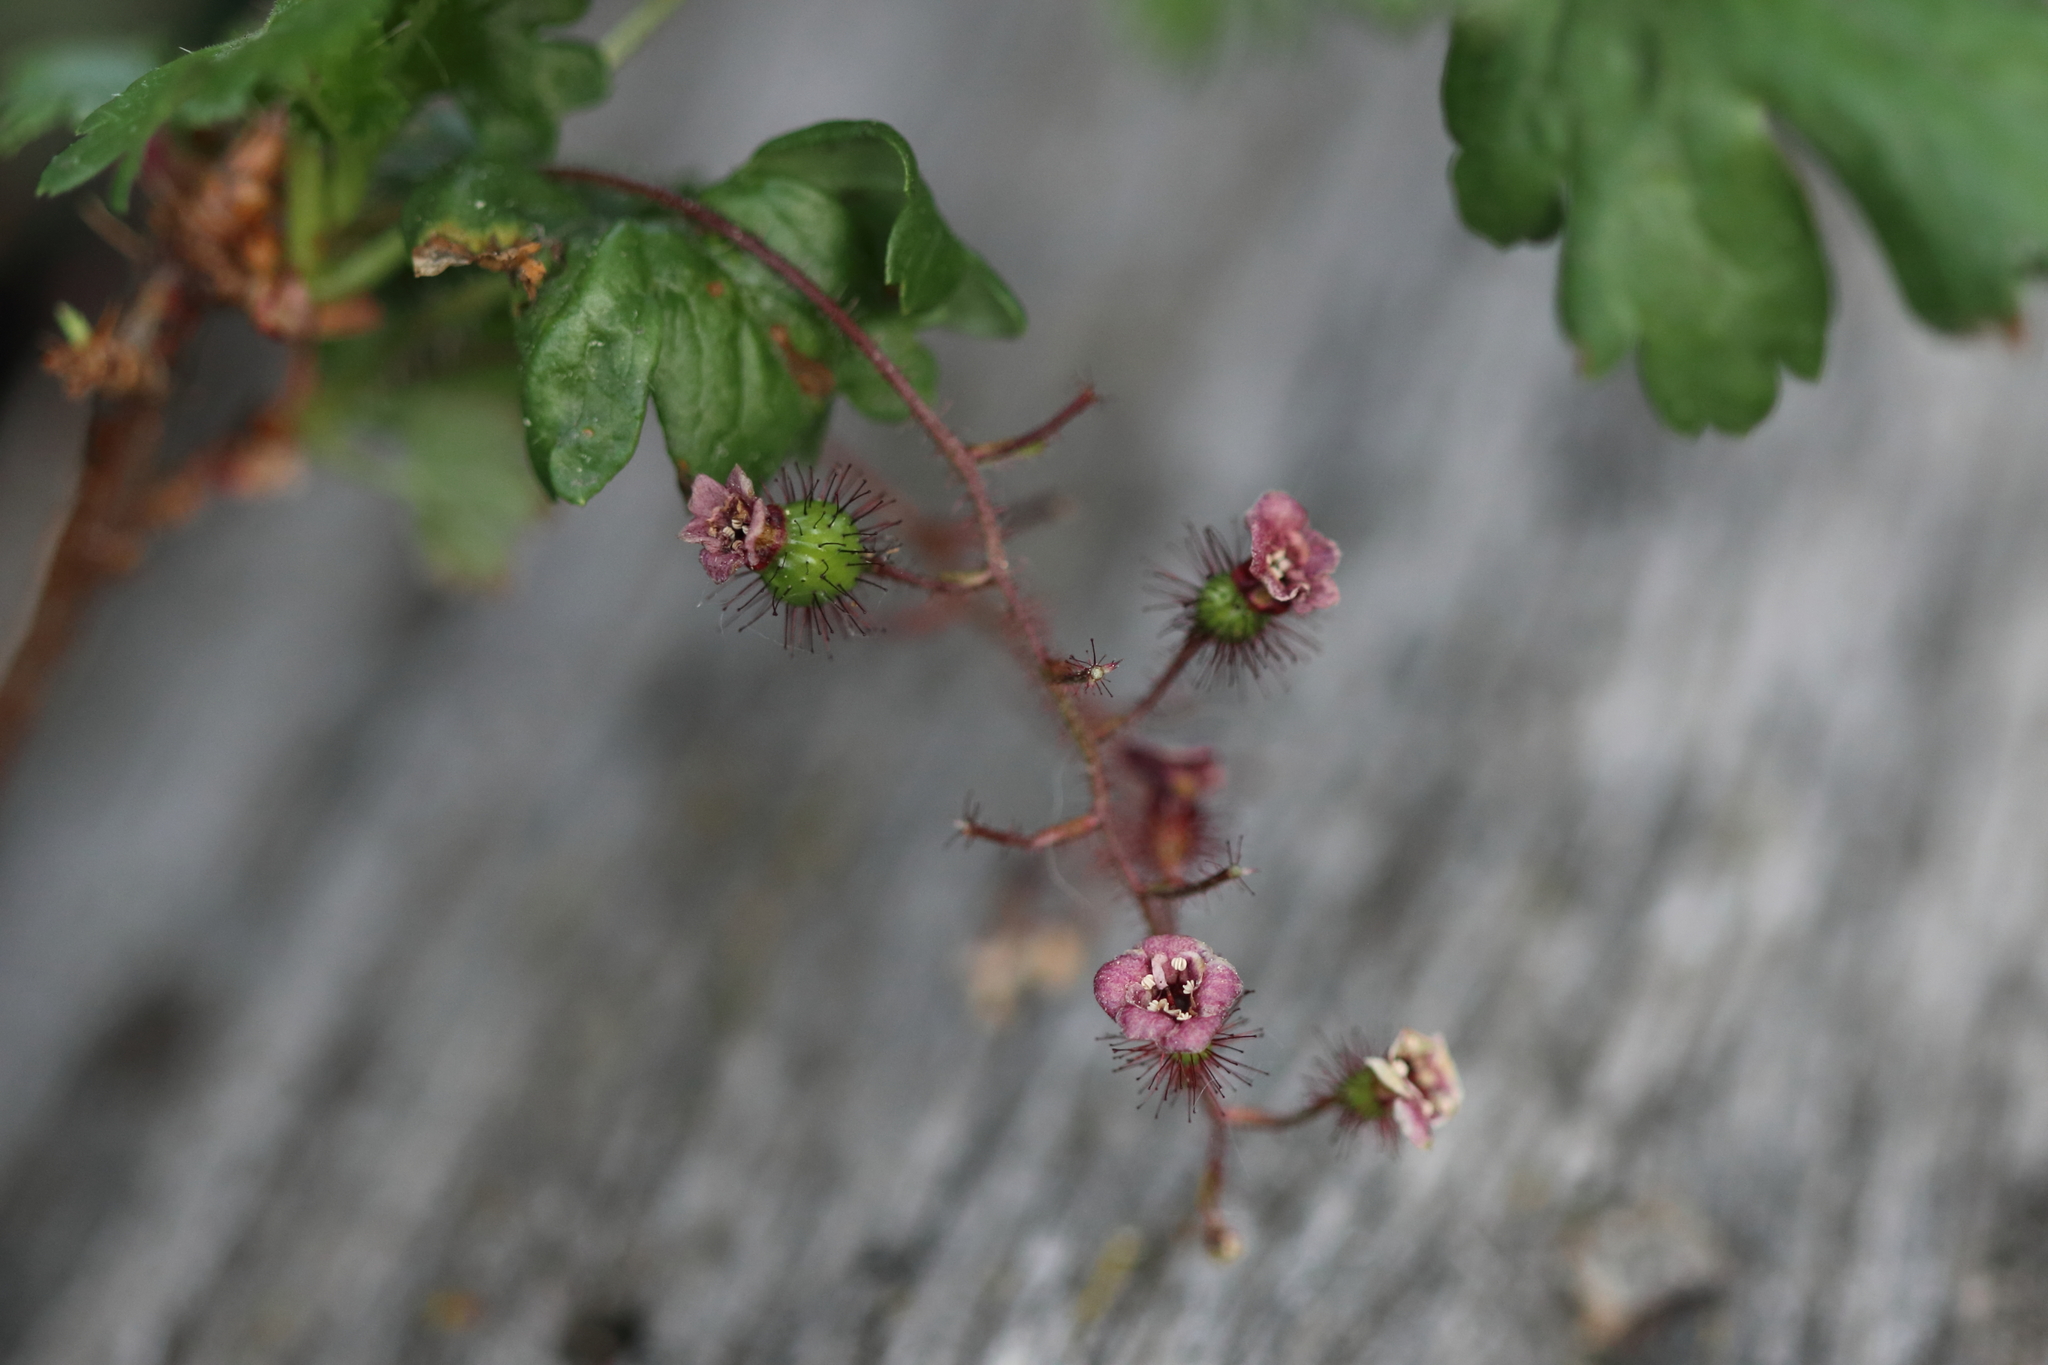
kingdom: Plantae
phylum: Tracheophyta
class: Magnoliopsida
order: Saxifragales
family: Grossulariaceae
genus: Ribes
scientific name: Ribes lacustre
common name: Black gooseberry
